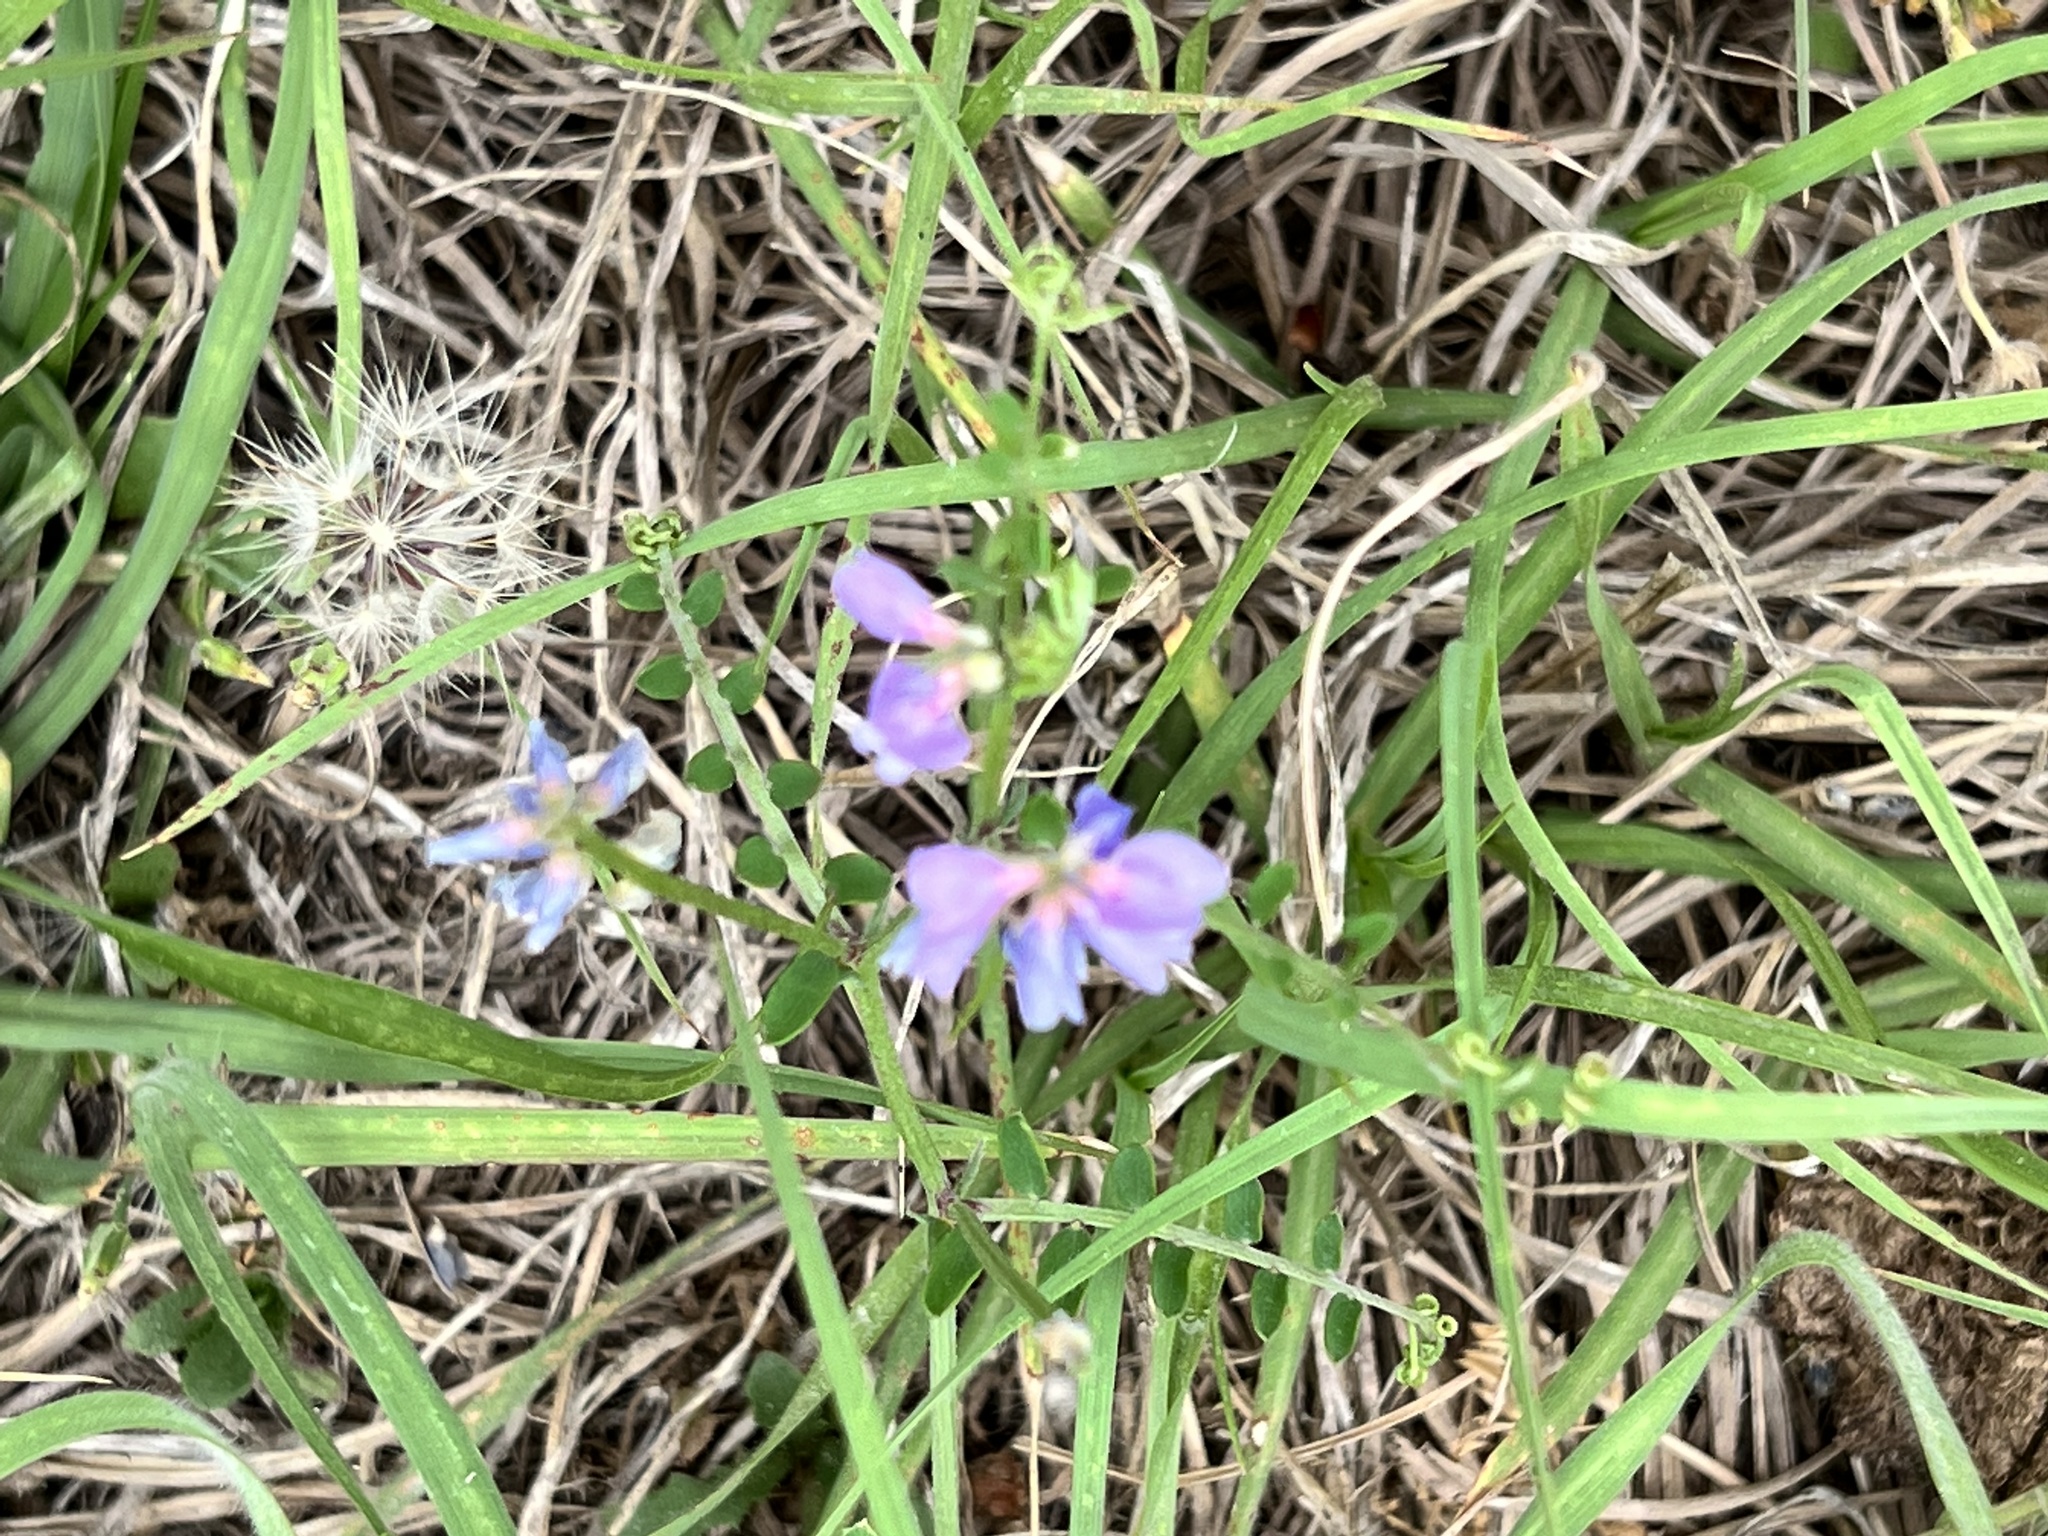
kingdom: Plantae
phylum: Tracheophyta
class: Magnoliopsida
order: Fabales
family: Fabaceae
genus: Vicia
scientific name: Vicia ludoviciana
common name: Louisiana vetch
